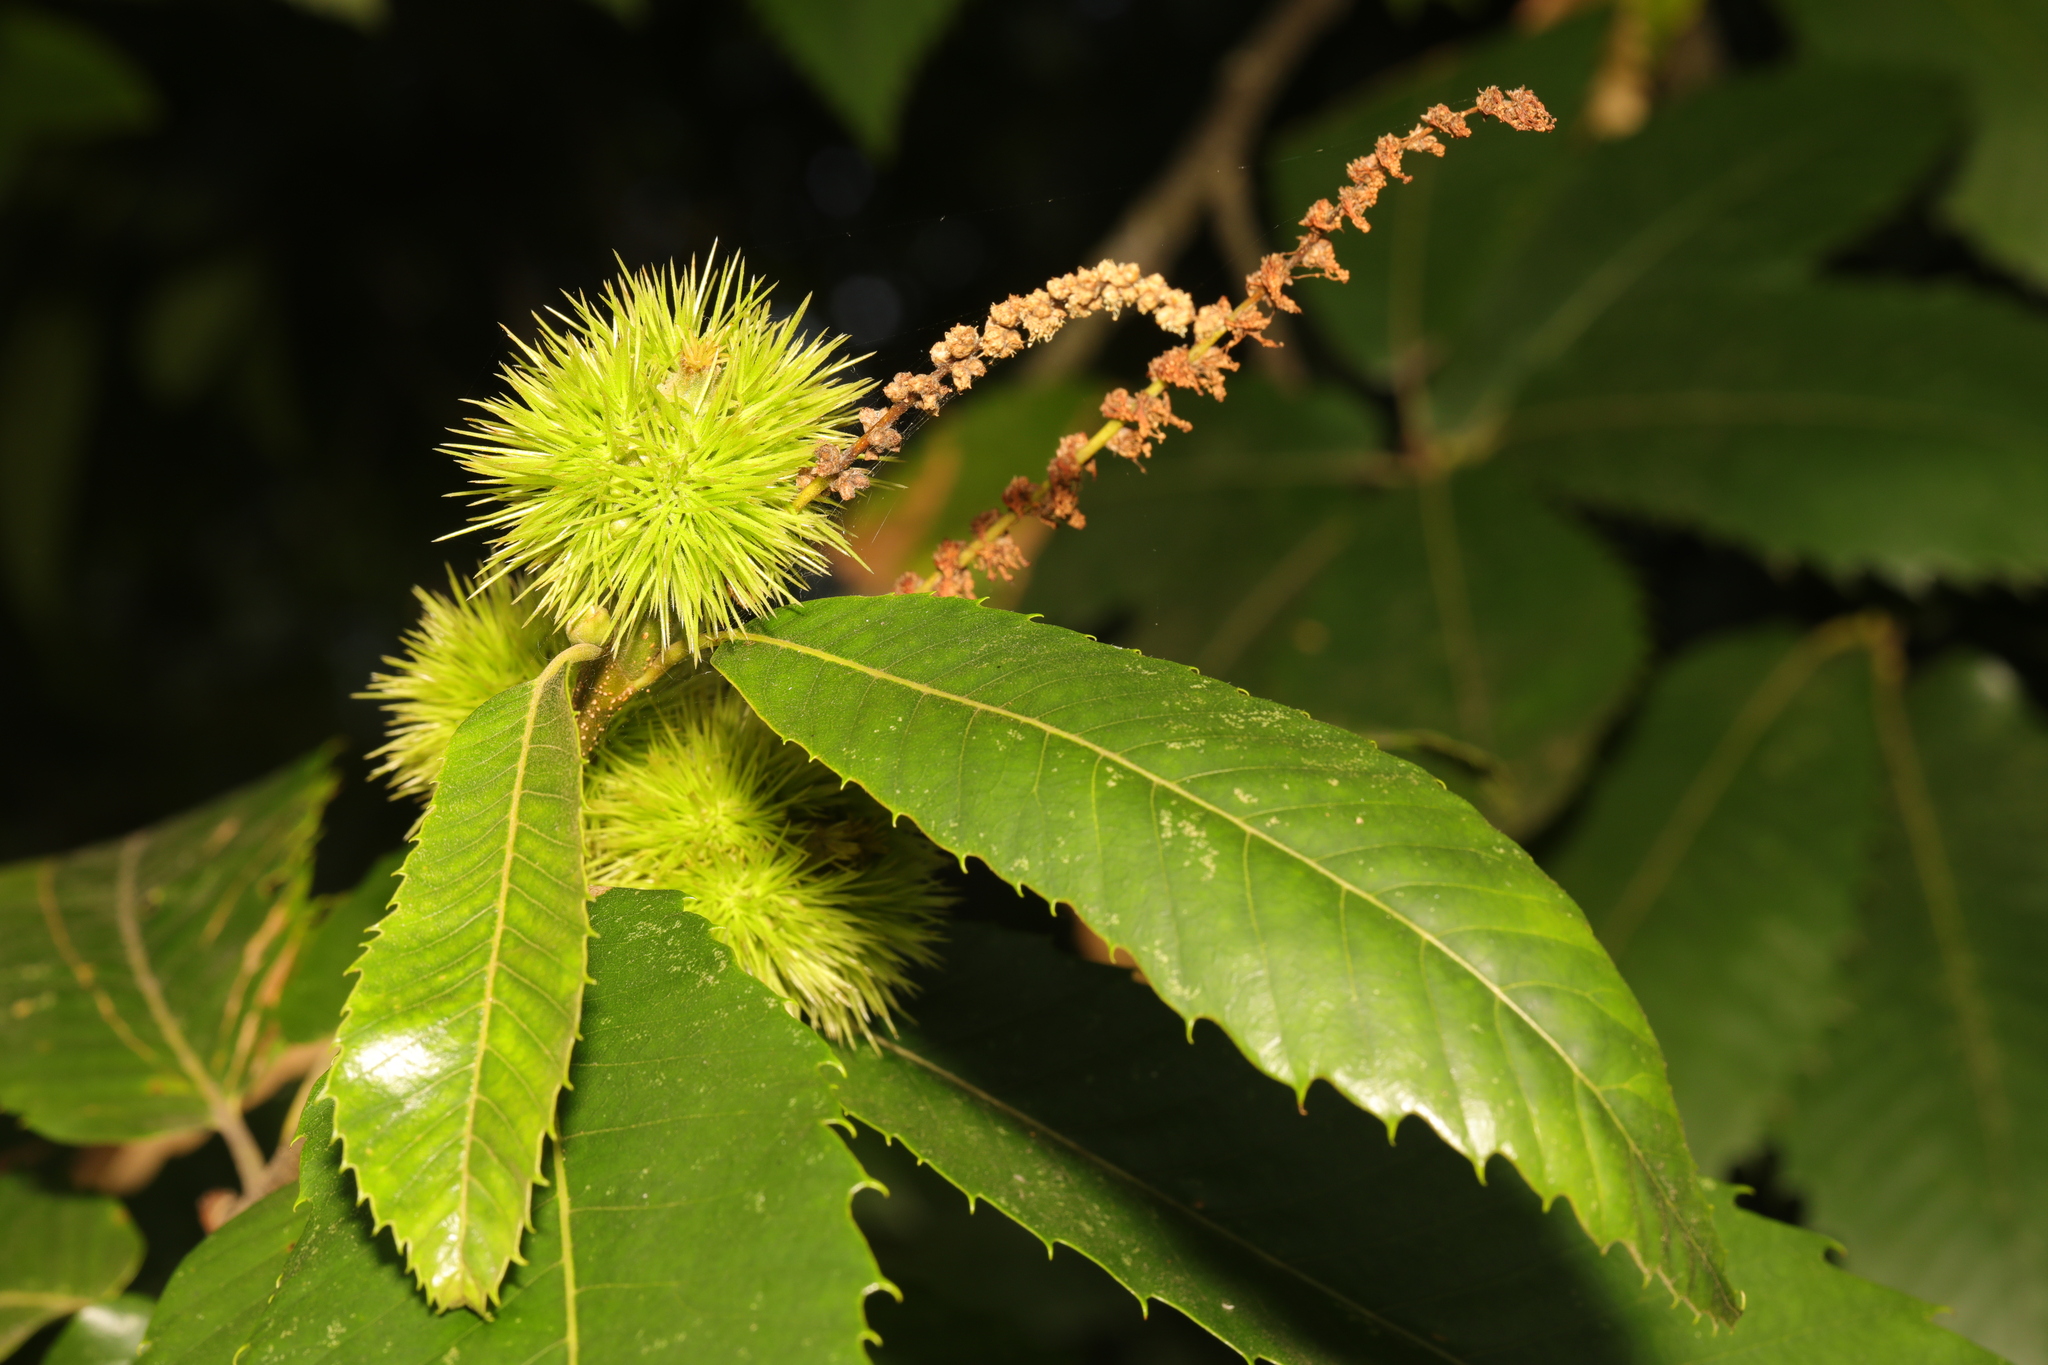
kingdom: Plantae
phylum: Tracheophyta
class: Magnoliopsida
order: Fagales
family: Fagaceae
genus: Castanea
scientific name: Castanea sativa
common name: Sweet chestnut
